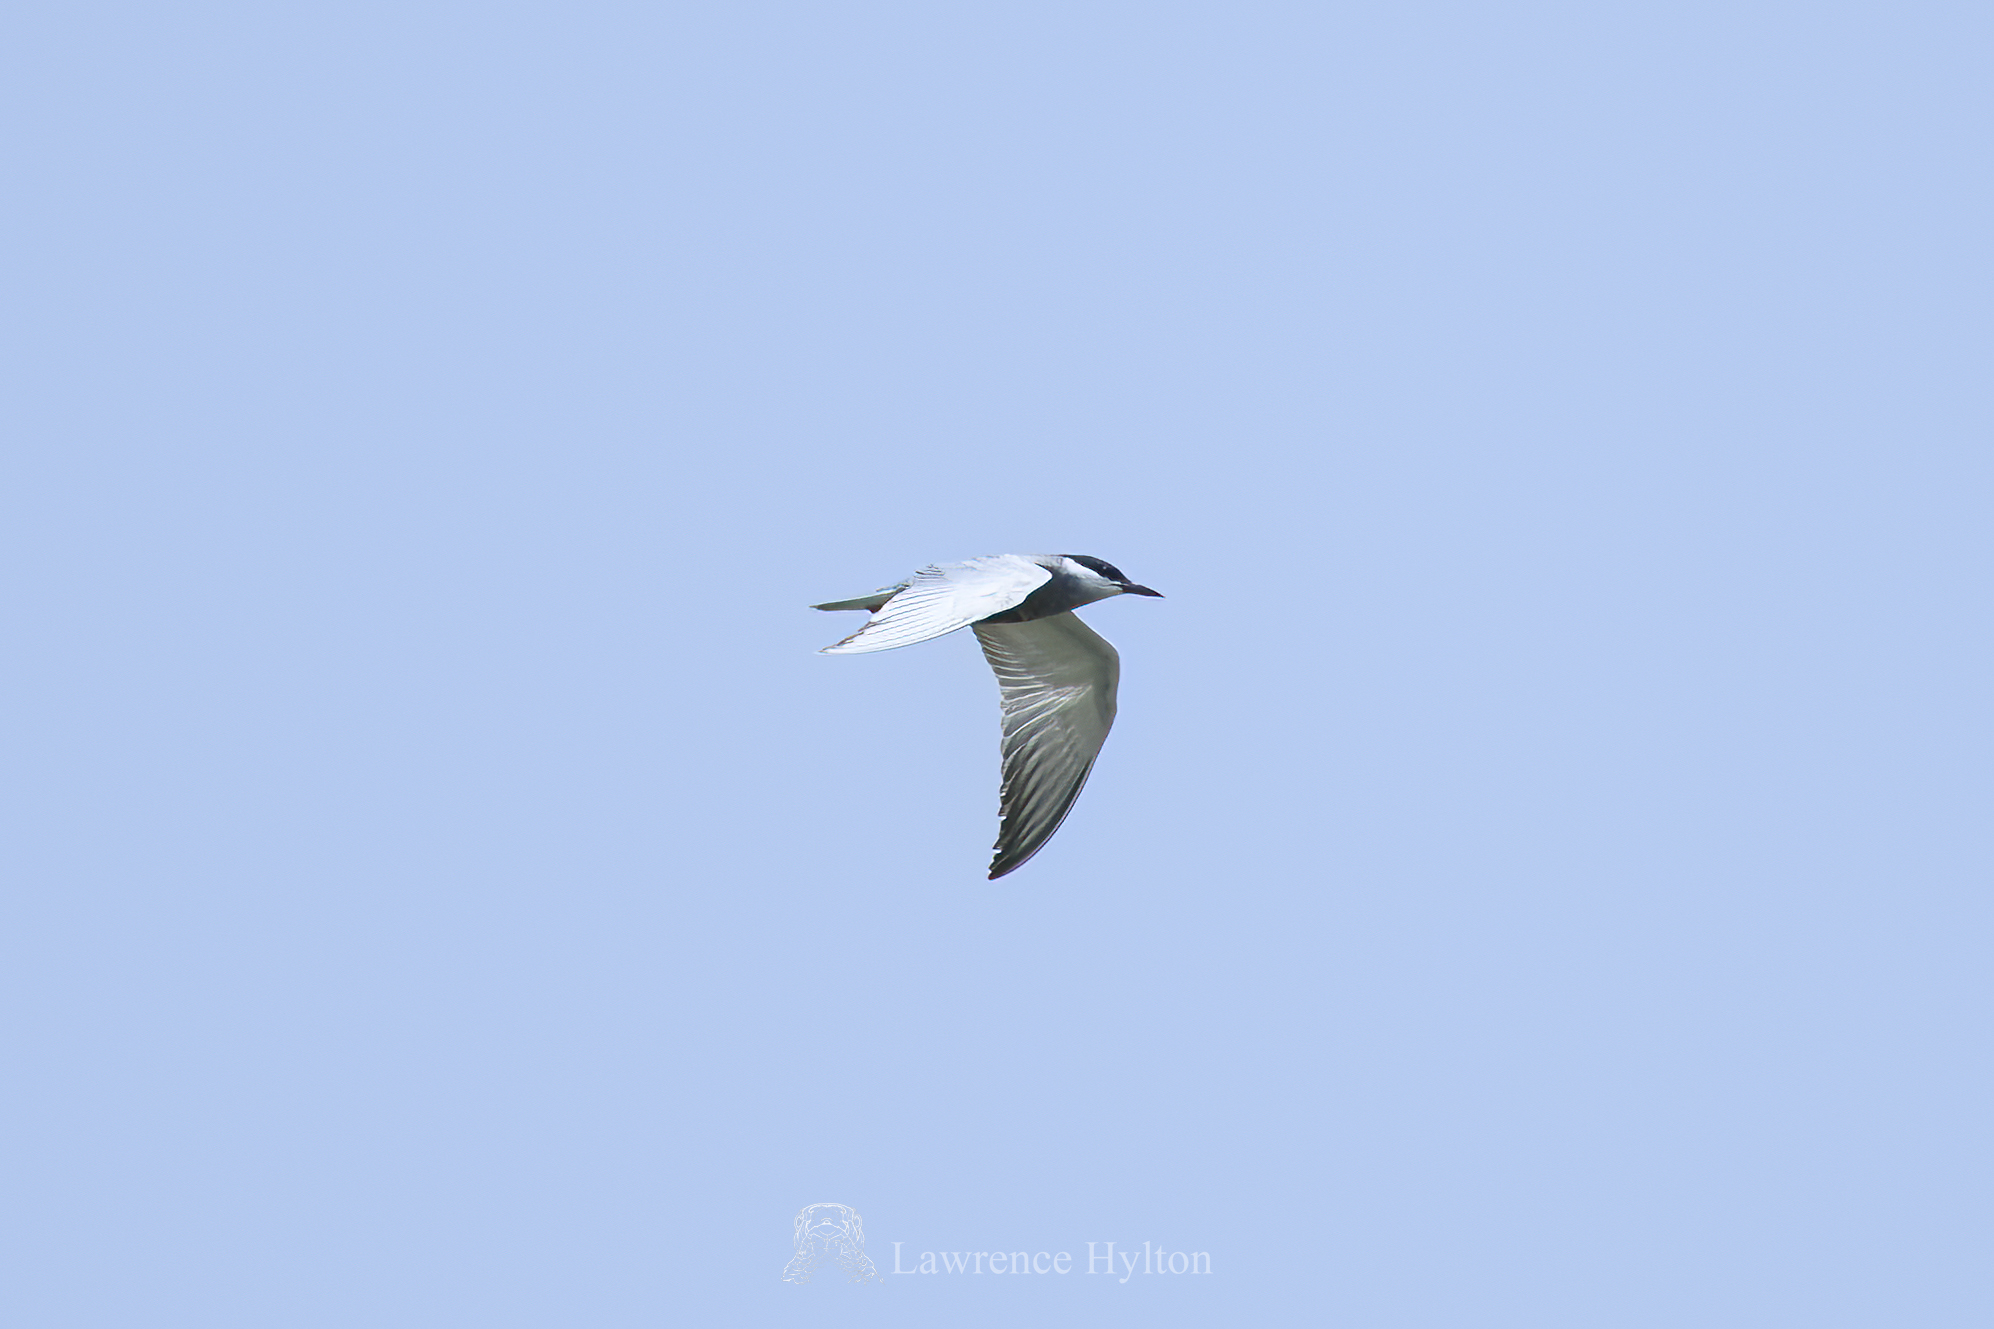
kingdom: Animalia
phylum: Chordata
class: Aves
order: Charadriiformes
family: Laridae
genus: Chlidonias
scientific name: Chlidonias hybrida
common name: Whiskered tern
